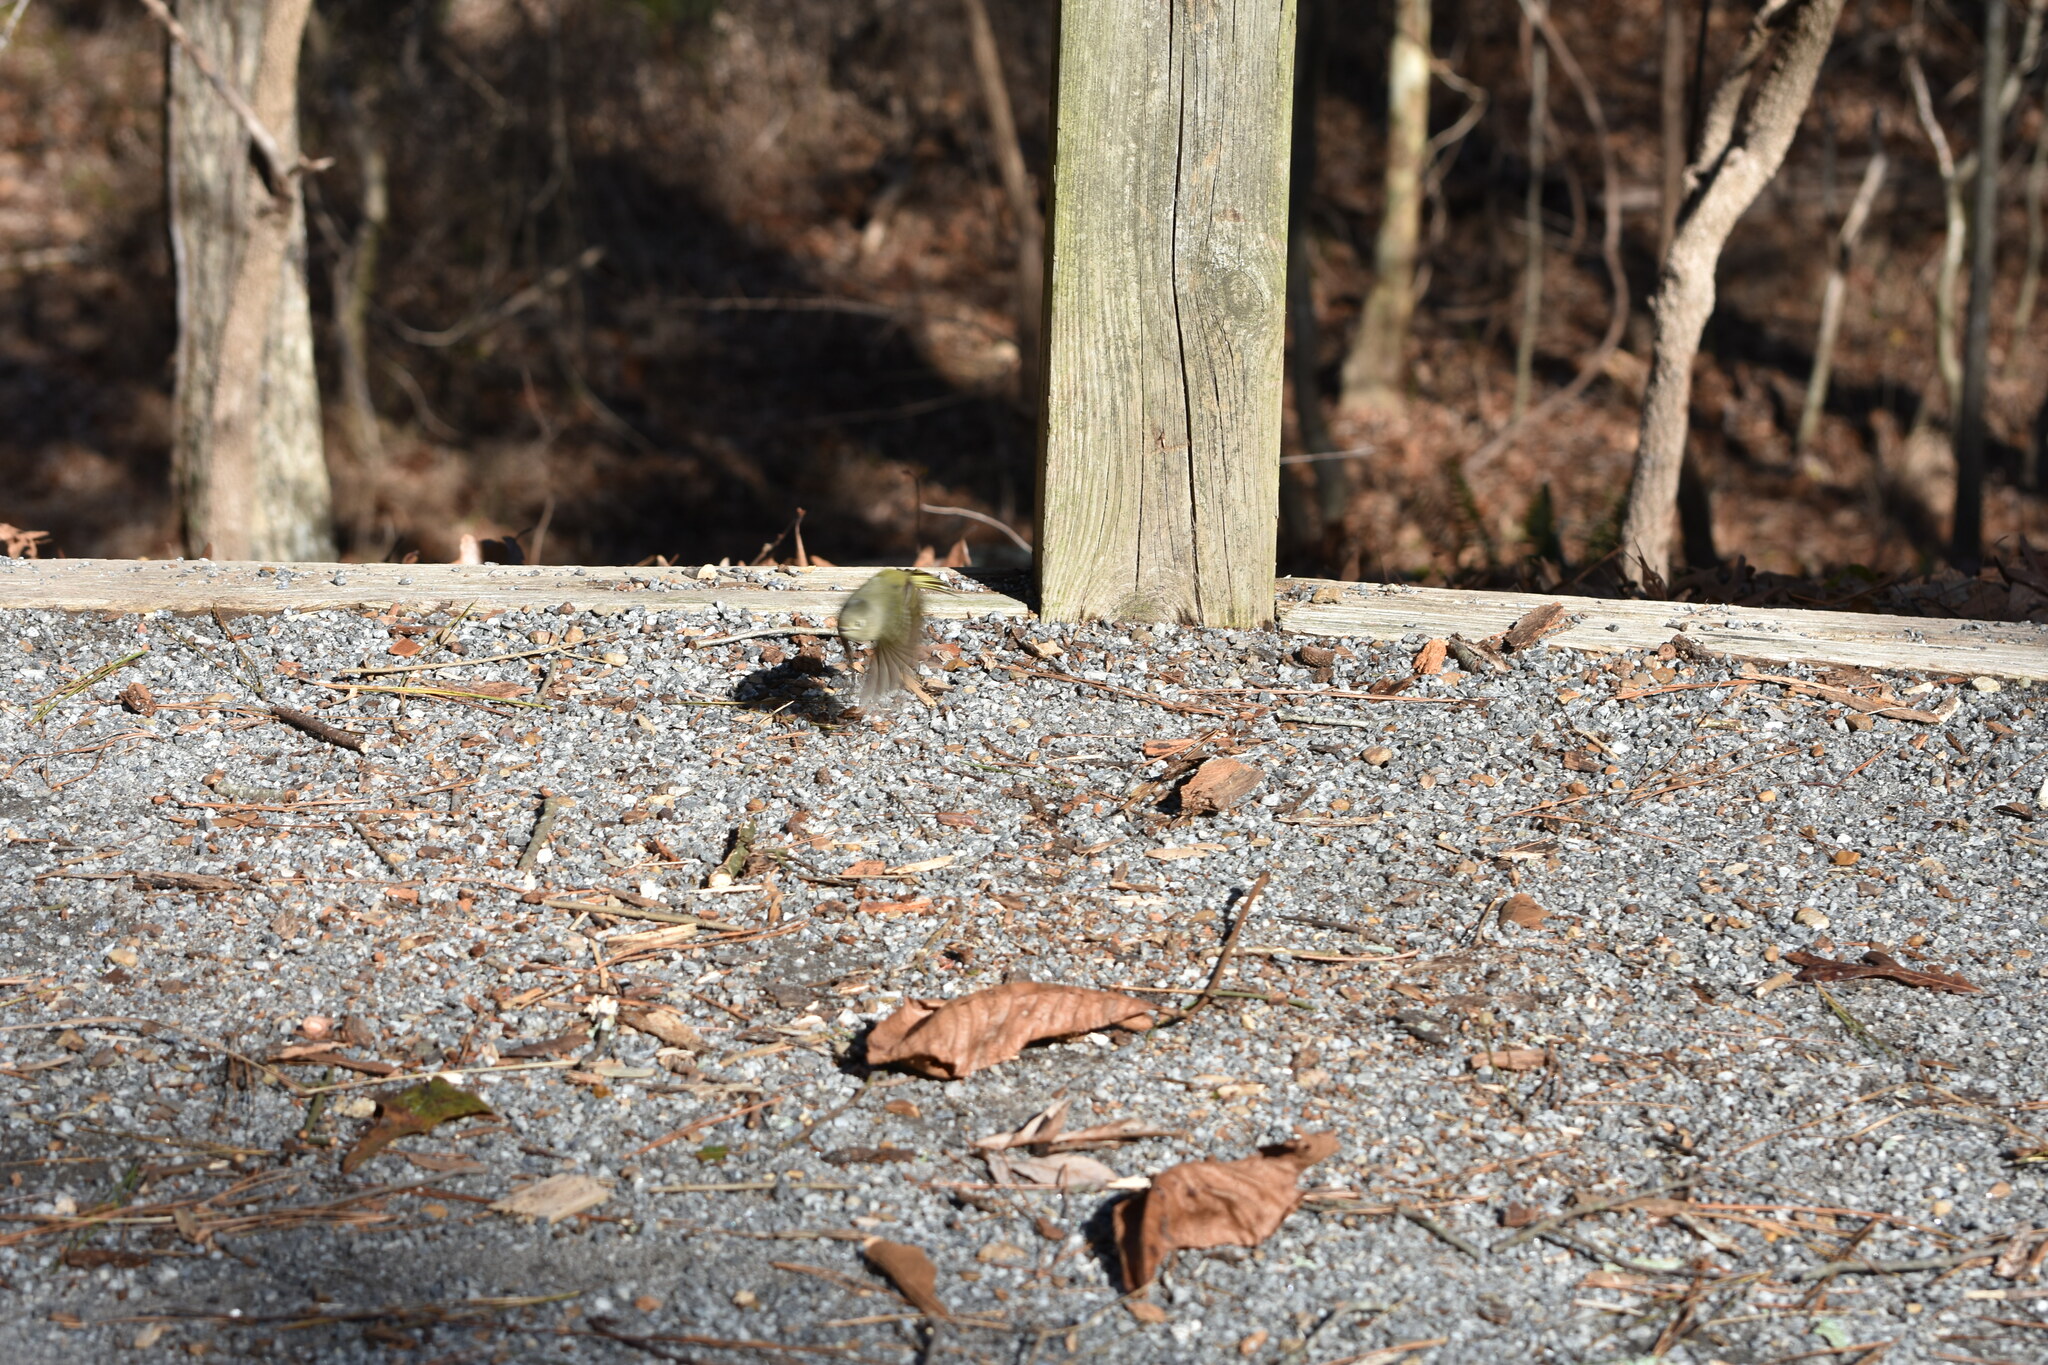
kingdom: Animalia
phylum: Chordata
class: Aves
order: Passeriformes
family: Regulidae
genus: Regulus
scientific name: Regulus calendula
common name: Ruby-crowned kinglet
